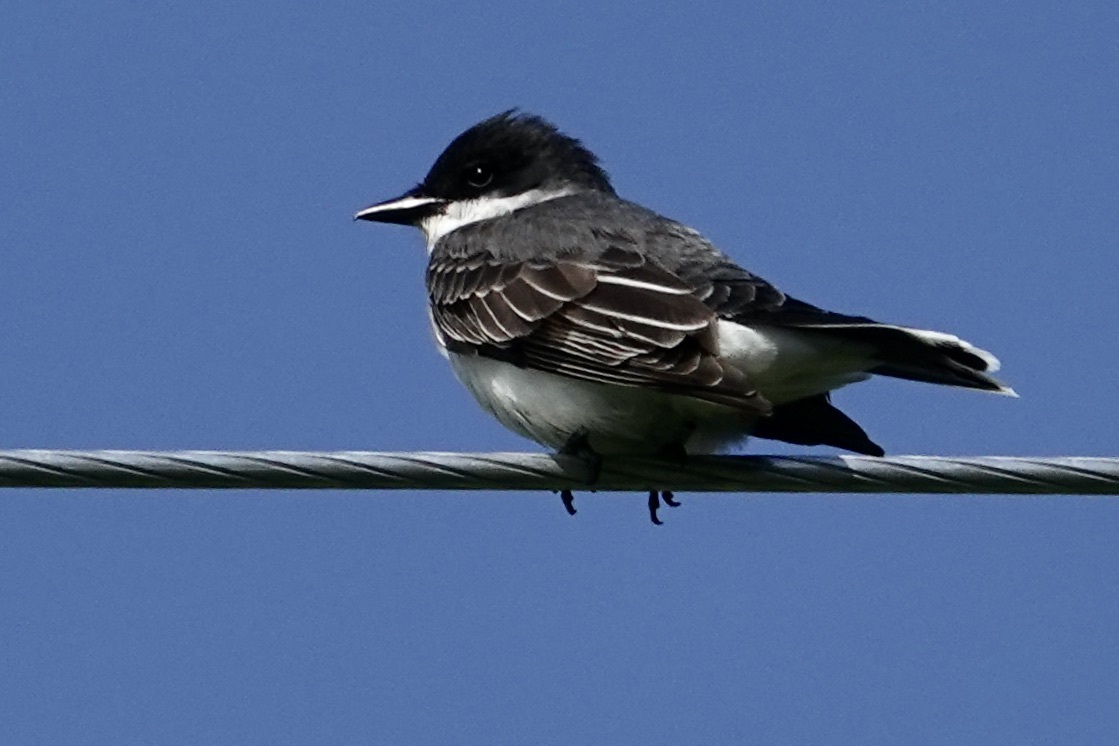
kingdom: Animalia
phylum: Chordata
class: Aves
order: Passeriformes
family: Tyrannidae
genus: Tyrannus
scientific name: Tyrannus tyrannus
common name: Eastern kingbird
